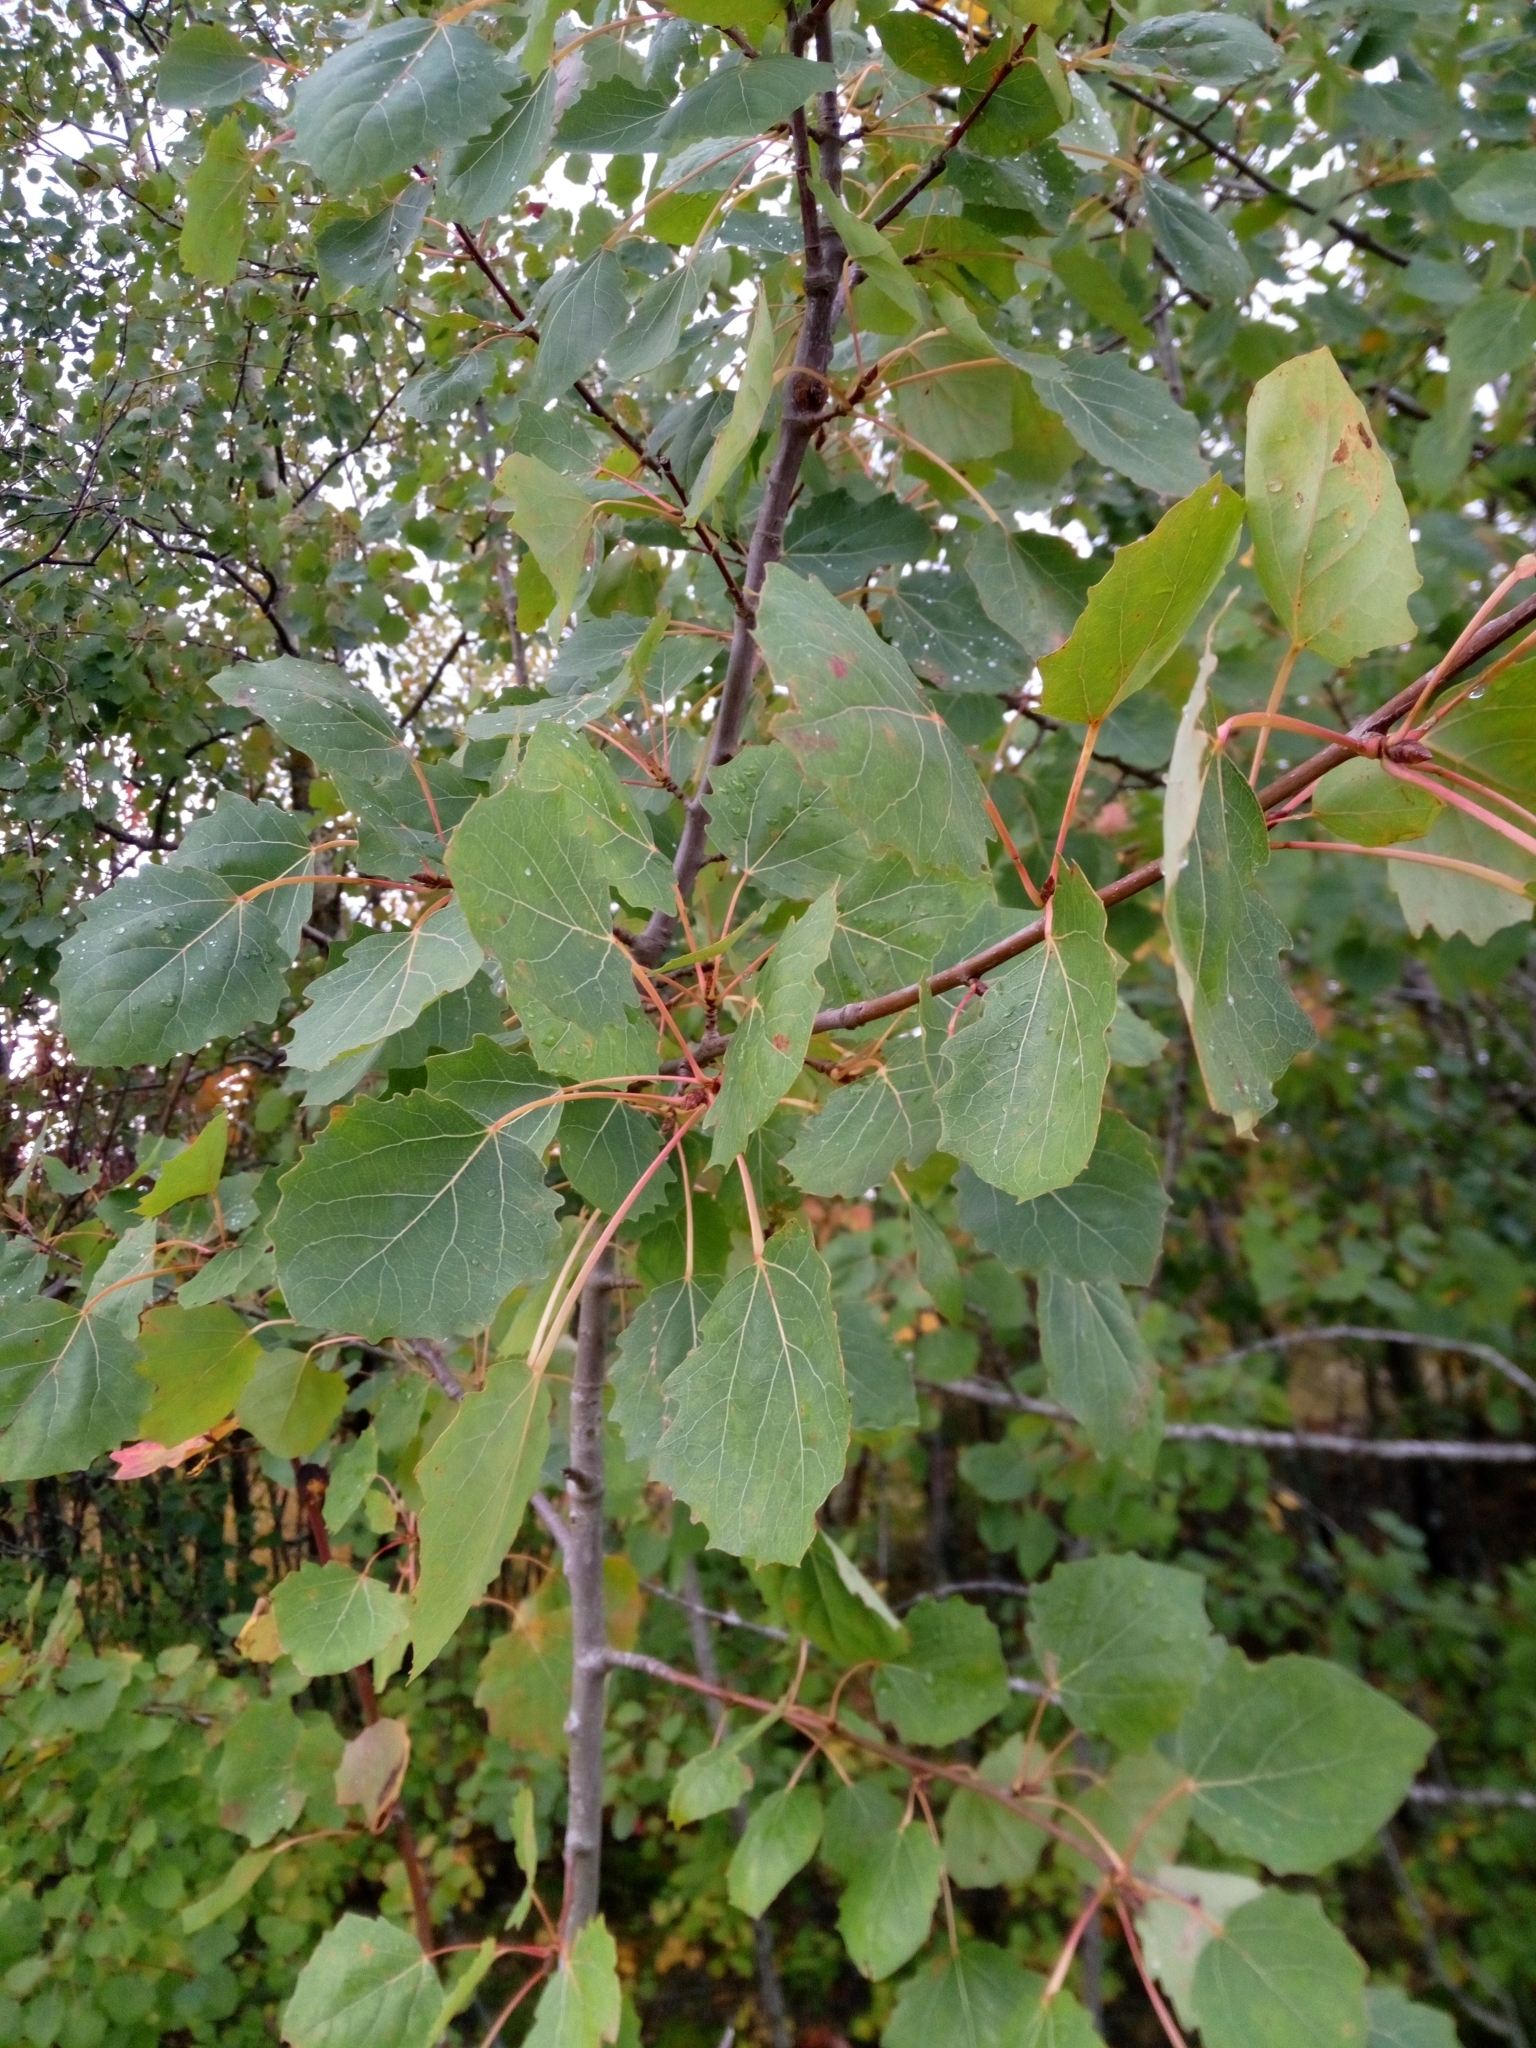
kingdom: Plantae
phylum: Tracheophyta
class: Magnoliopsida
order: Malpighiales
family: Salicaceae
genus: Populus
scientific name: Populus tremula
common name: European aspen
